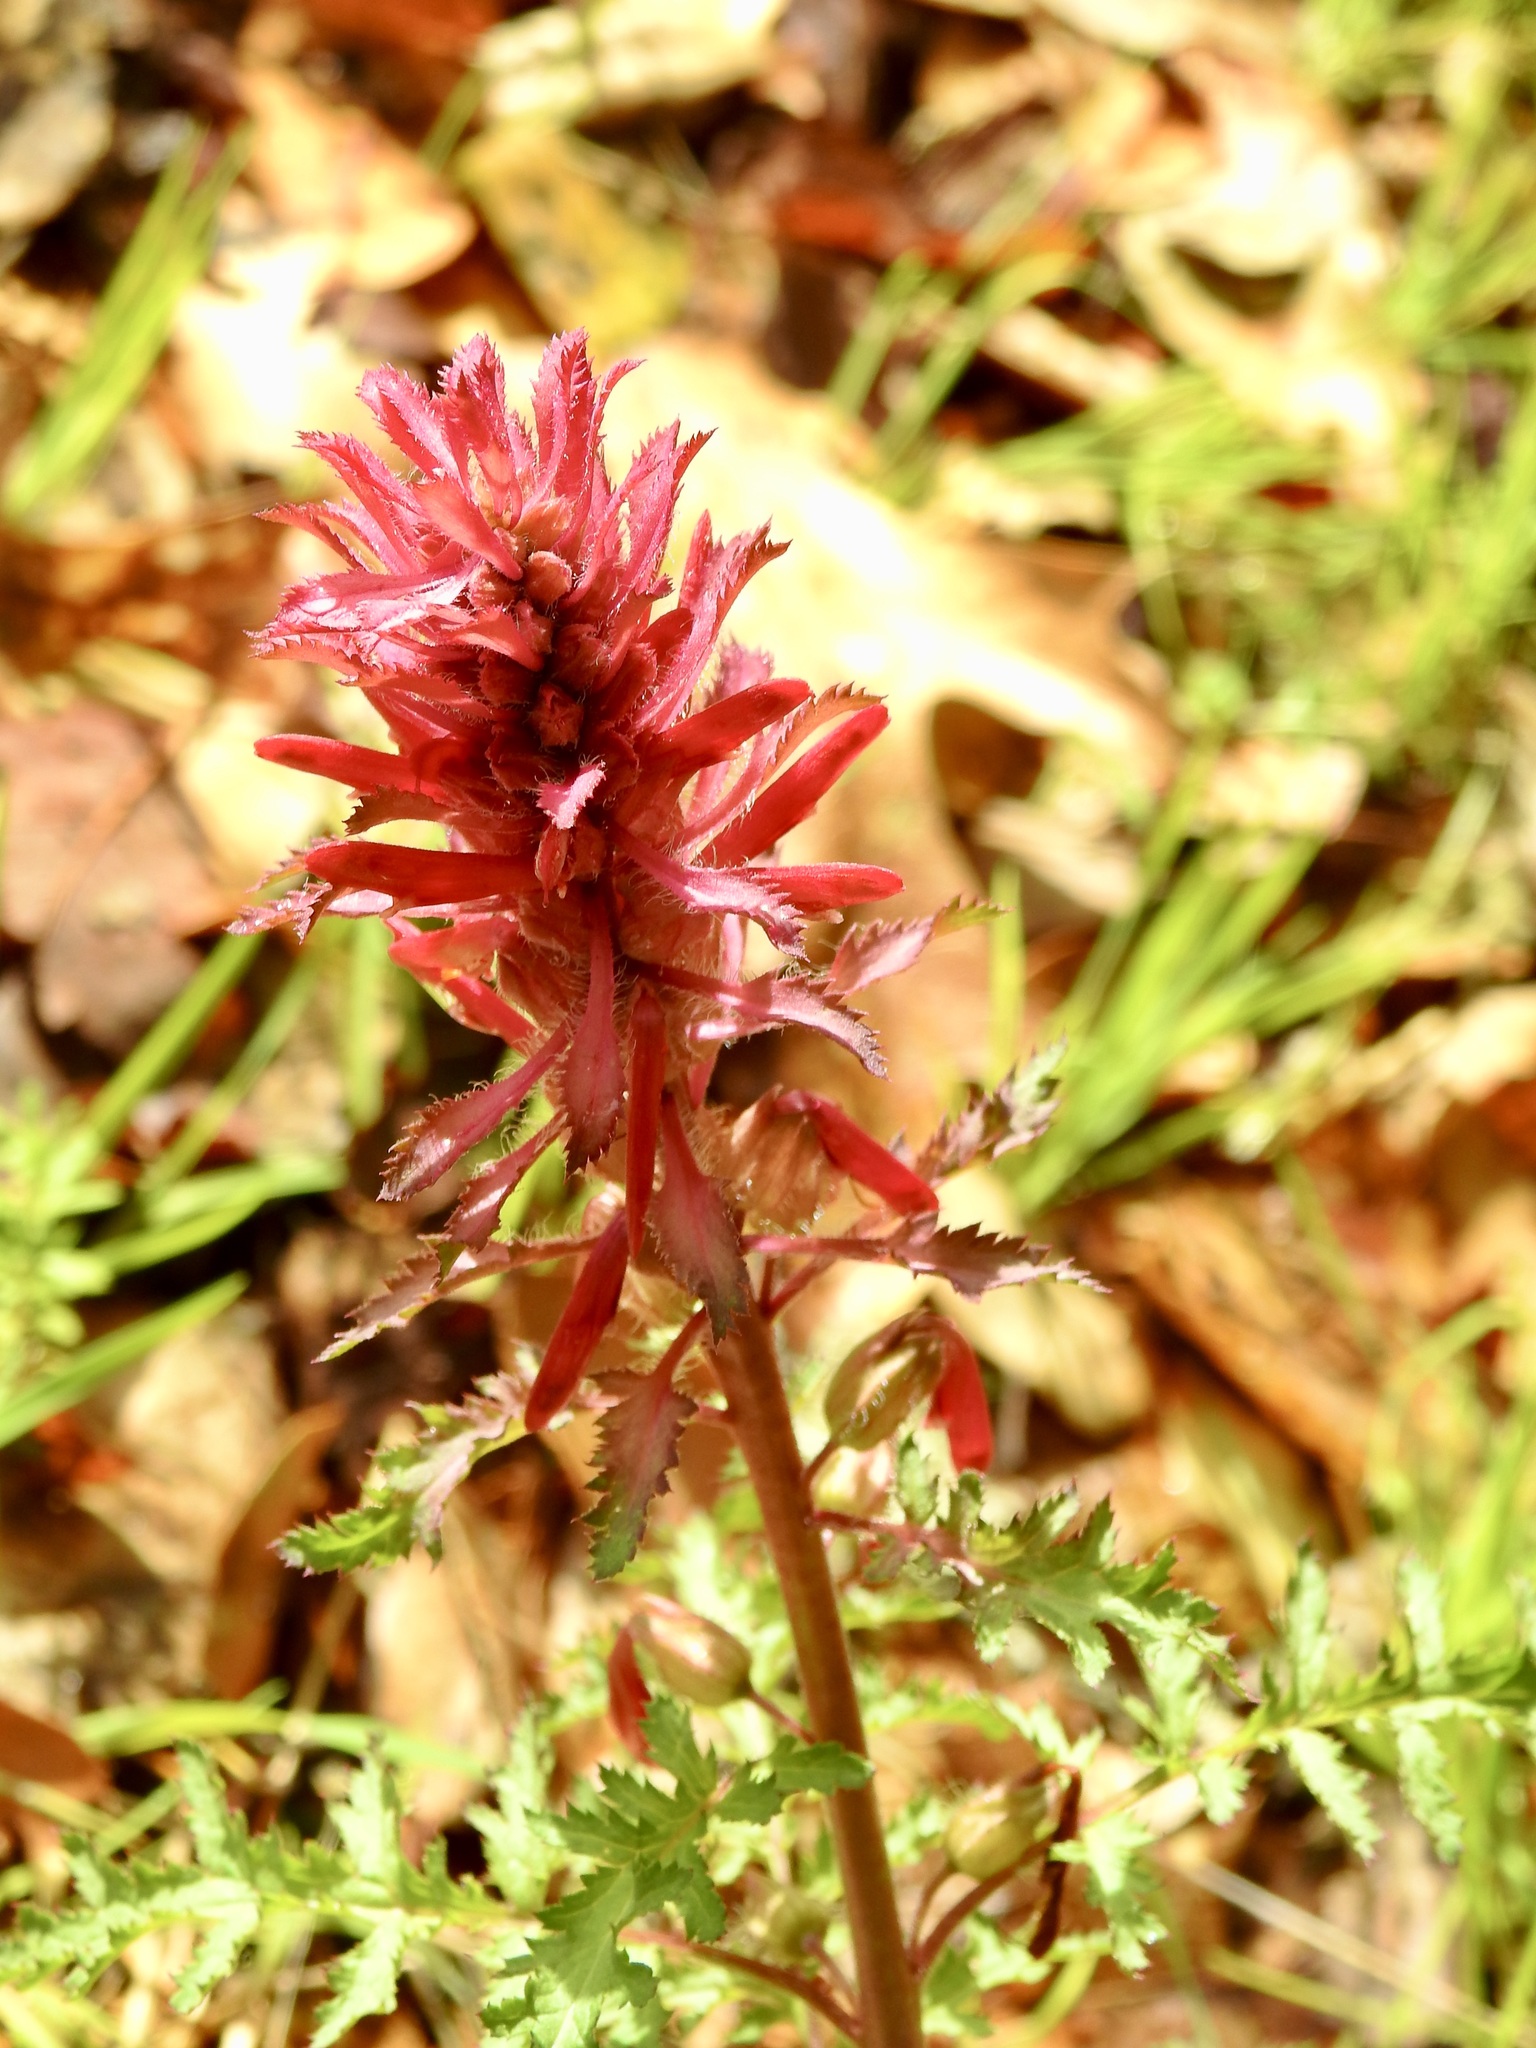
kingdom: Plantae
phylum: Tracheophyta
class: Magnoliopsida
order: Lamiales
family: Orobanchaceae
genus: Pedicularis
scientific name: Pedicularis densiflora
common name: Indian warrior
